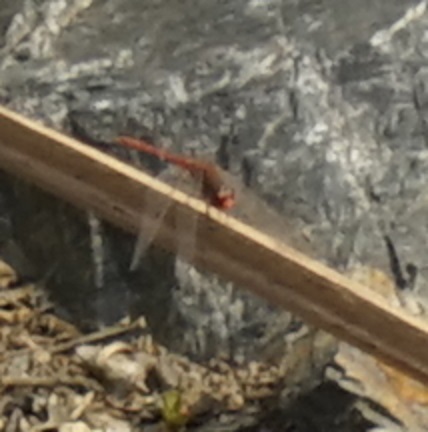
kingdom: Animalia
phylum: Arthropoda
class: Insecta
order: Odonata
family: Libellulidae
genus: Diplacodes
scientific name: Diplacodes bipunctata
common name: Red percher dragonfly
